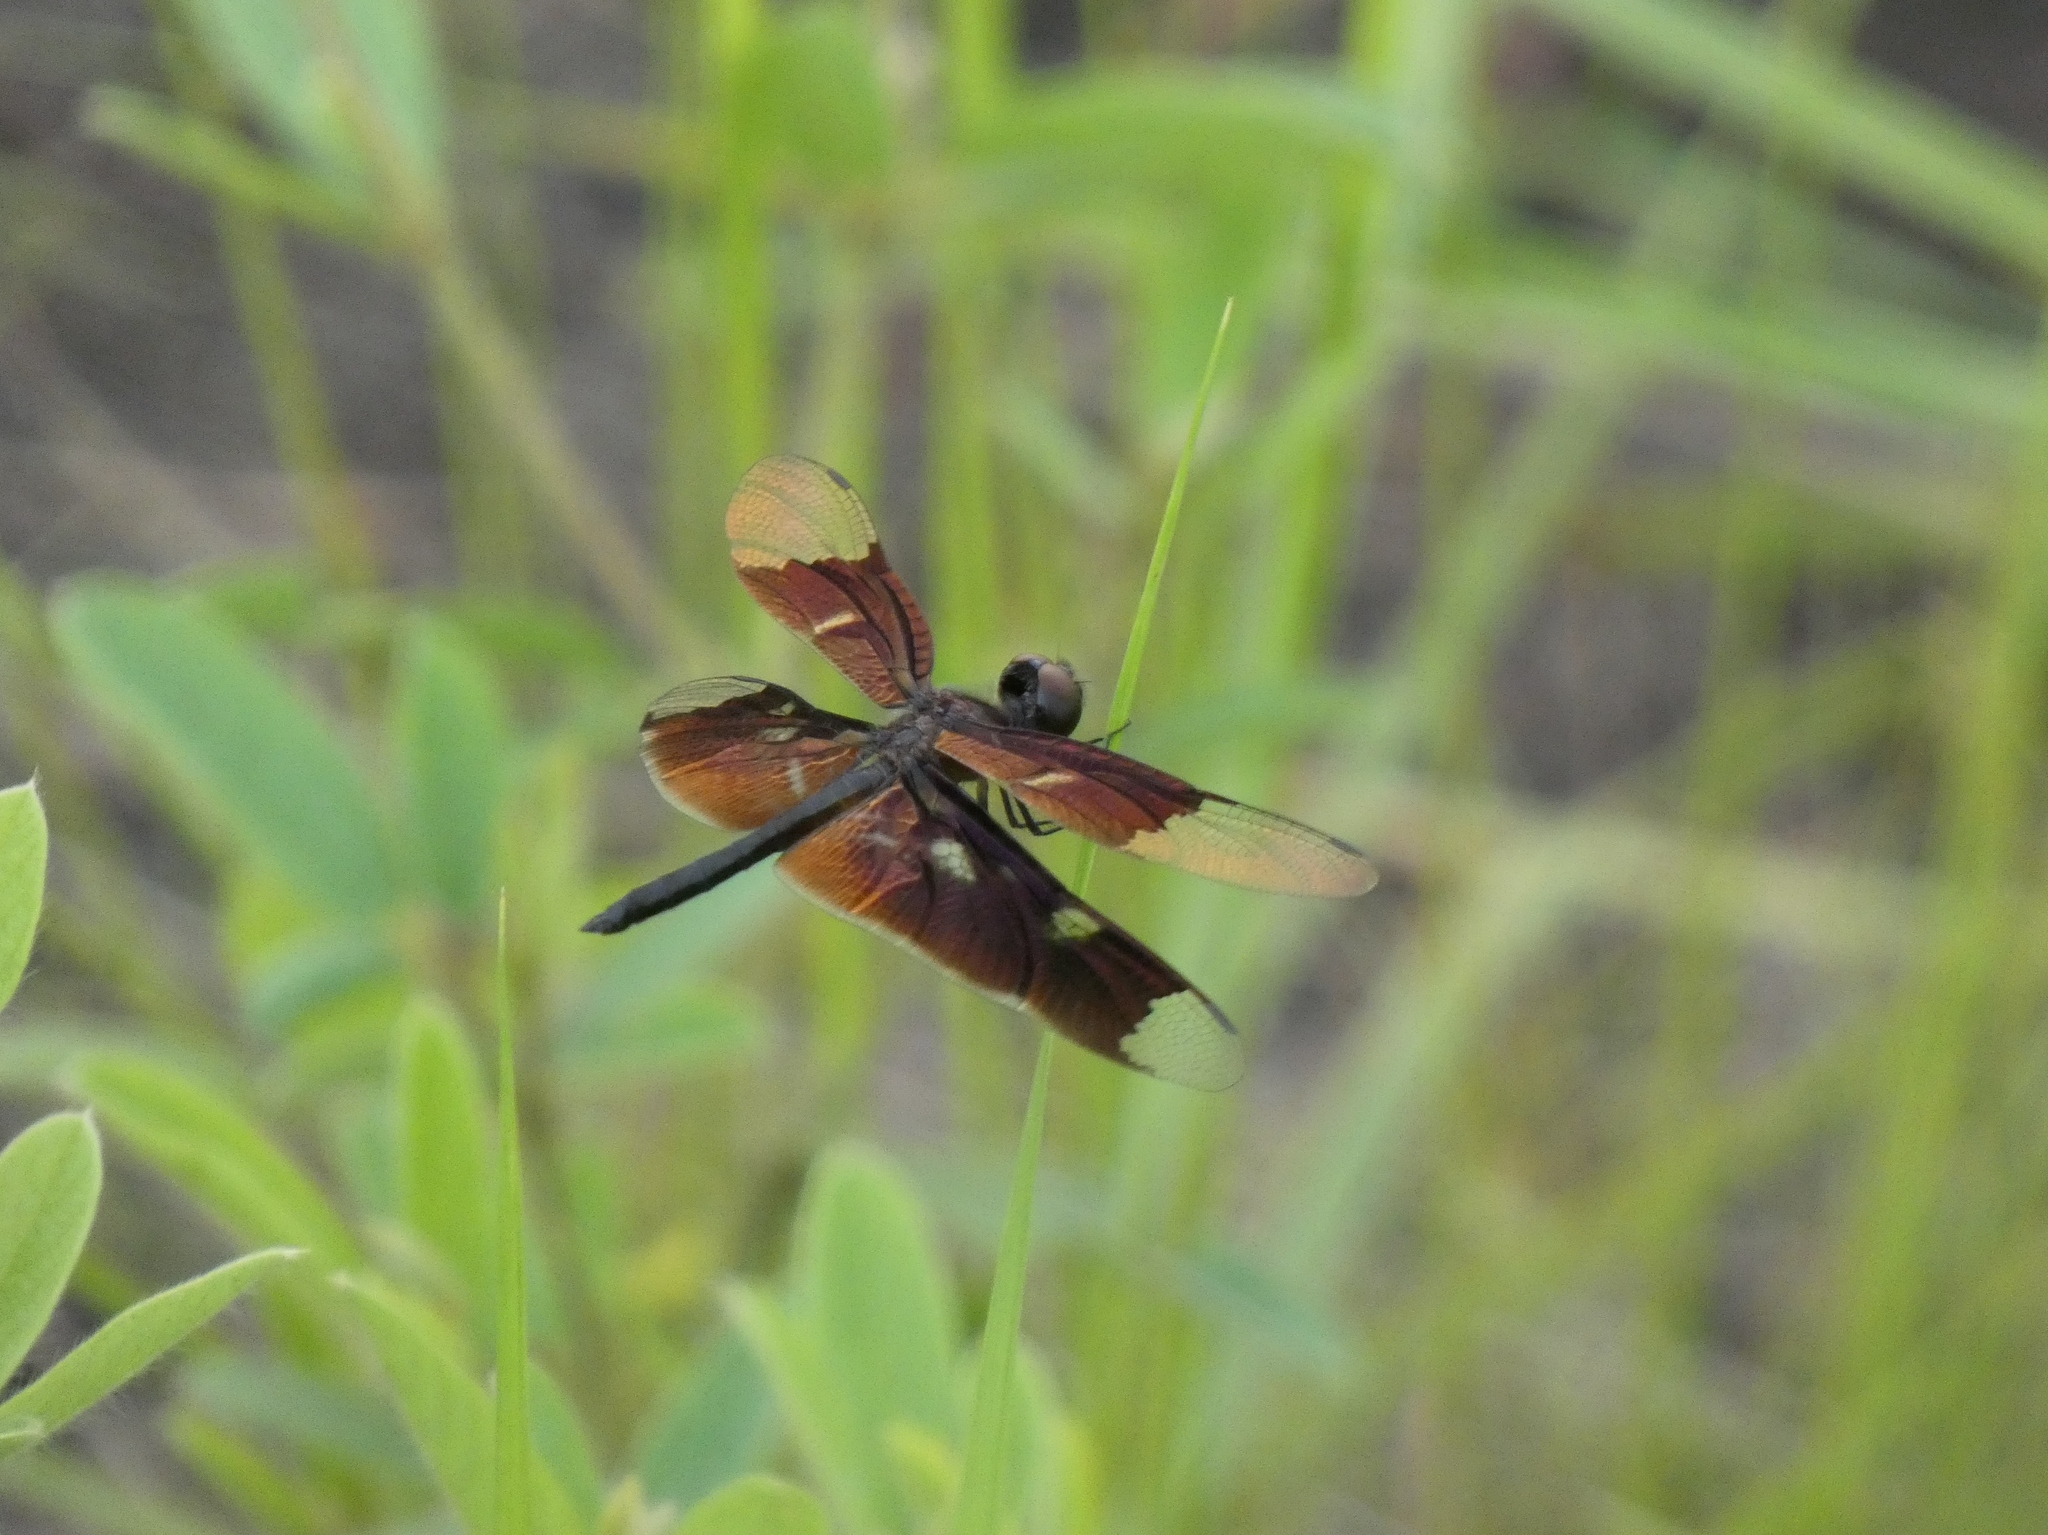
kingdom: Animalia
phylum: Arthropoda
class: Insecta
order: Odonata
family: Libellulidae
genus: Rhyothemis
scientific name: Rhyothemis notata
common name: Veiled flutterer
